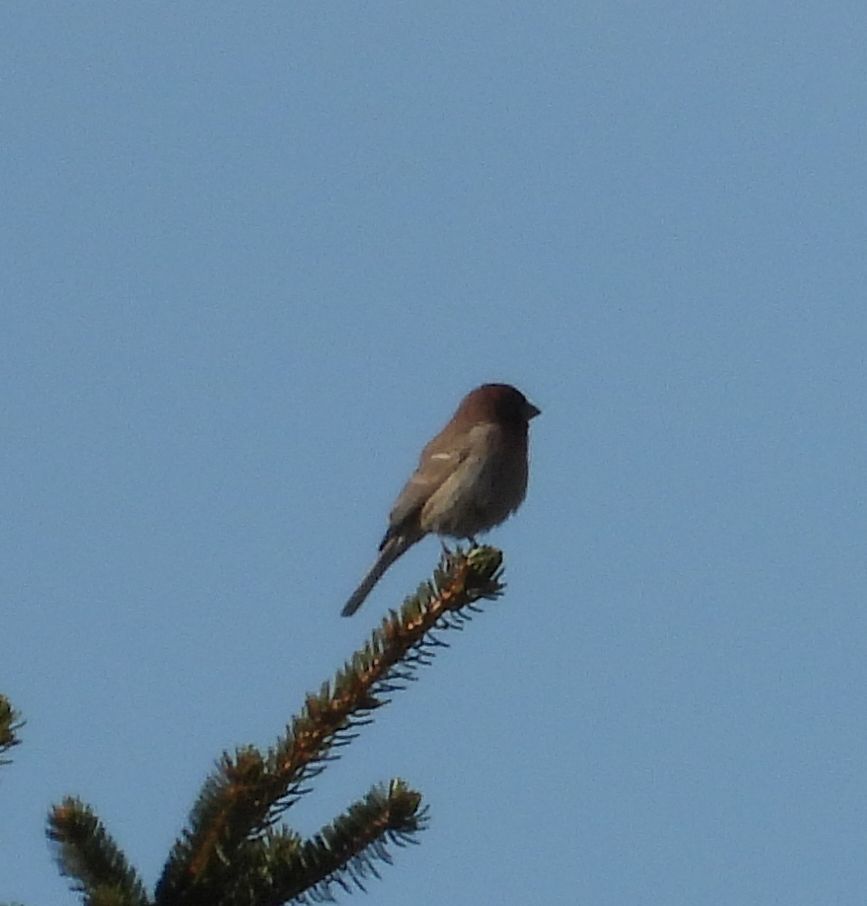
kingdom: Animalia
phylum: Chordata
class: Aves
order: Passeriformes
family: Fringillidae
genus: Haemorhous
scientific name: Haemorhous mexicanus
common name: House finch
